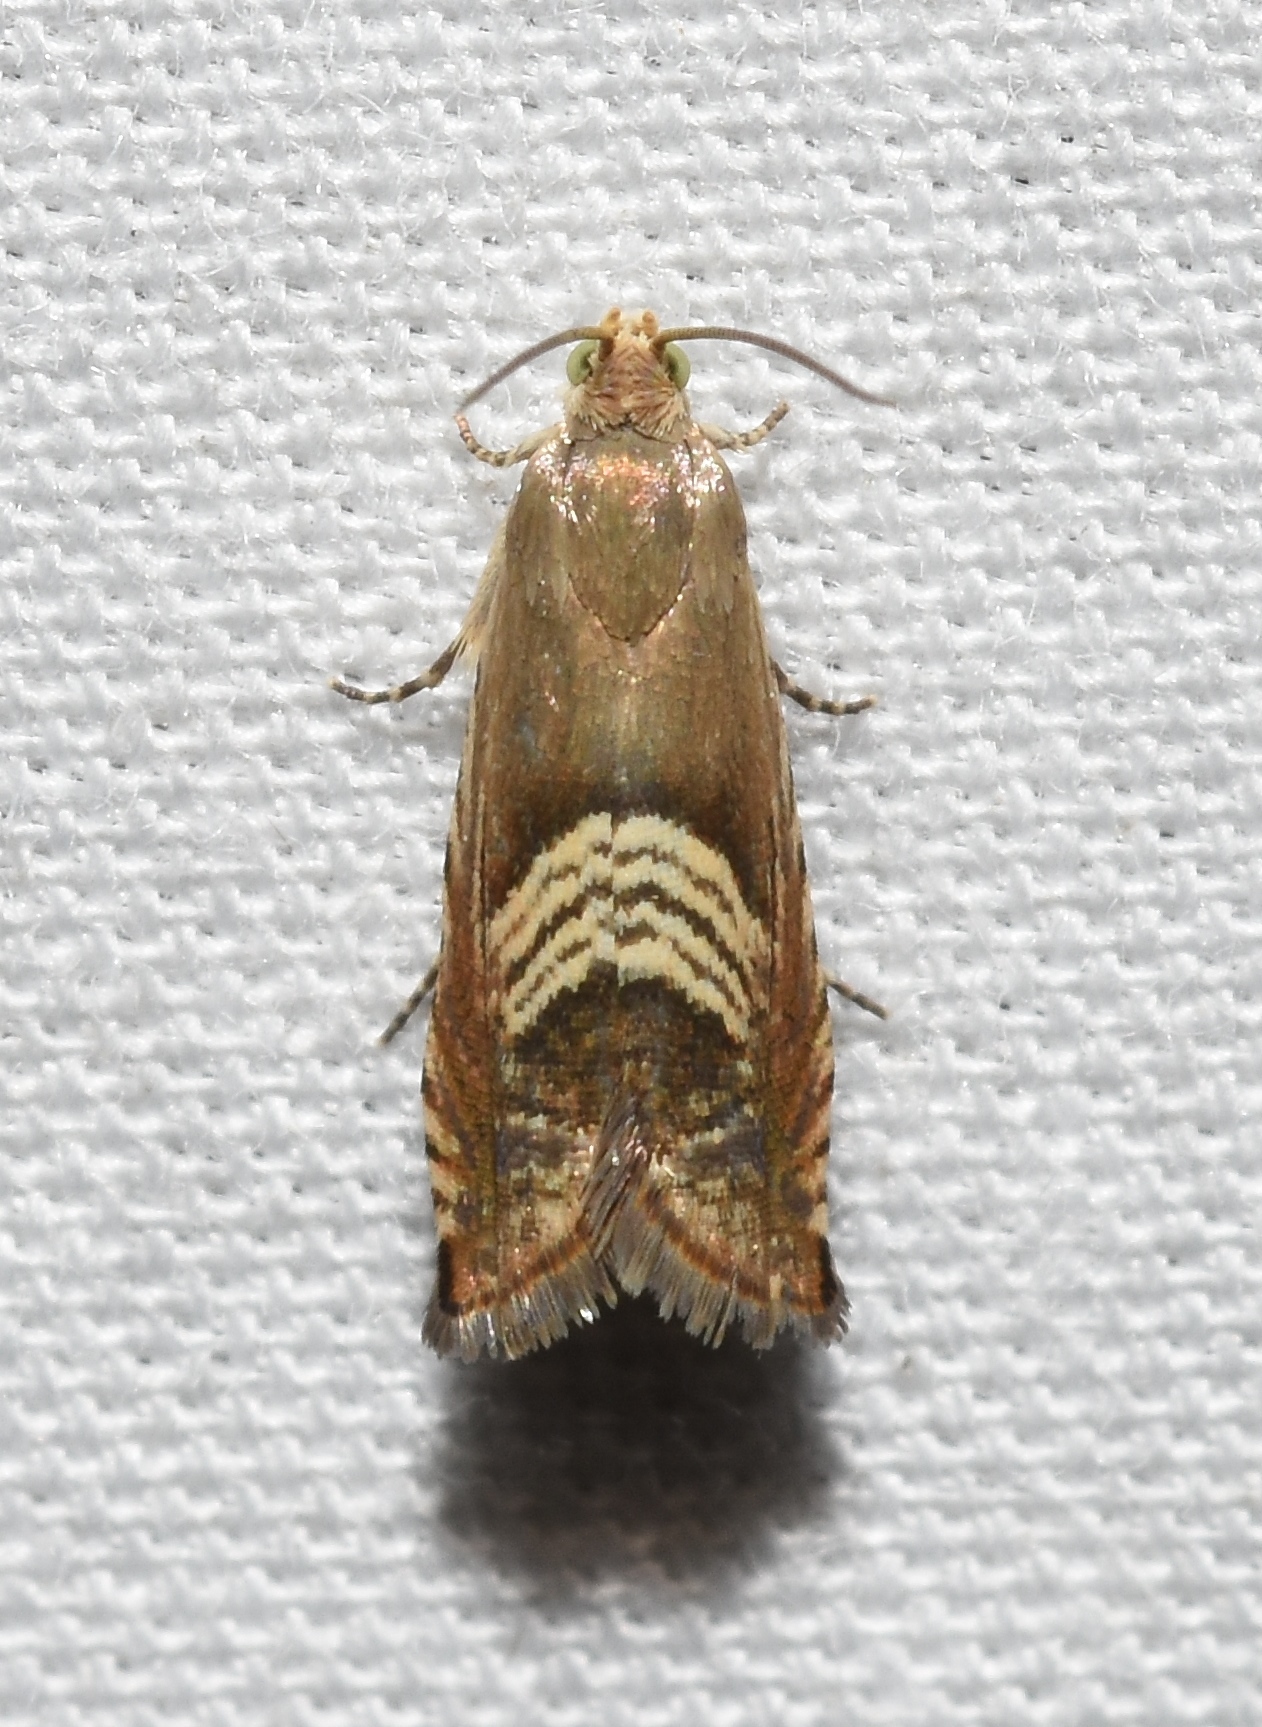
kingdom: Animalia
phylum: Arthropoda
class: Insecta
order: Lepidoptera
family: Tortricidae
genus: Grapholita
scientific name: Grapholita tristrigana
